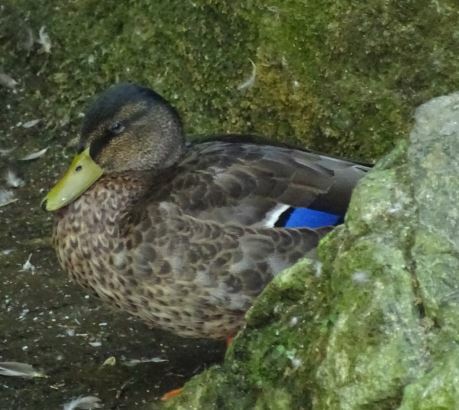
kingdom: Animalia
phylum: Chordata
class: Aves
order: Anseriformes
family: Anatidae
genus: Anas
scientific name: Anas platyrhynchos
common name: Mallard
